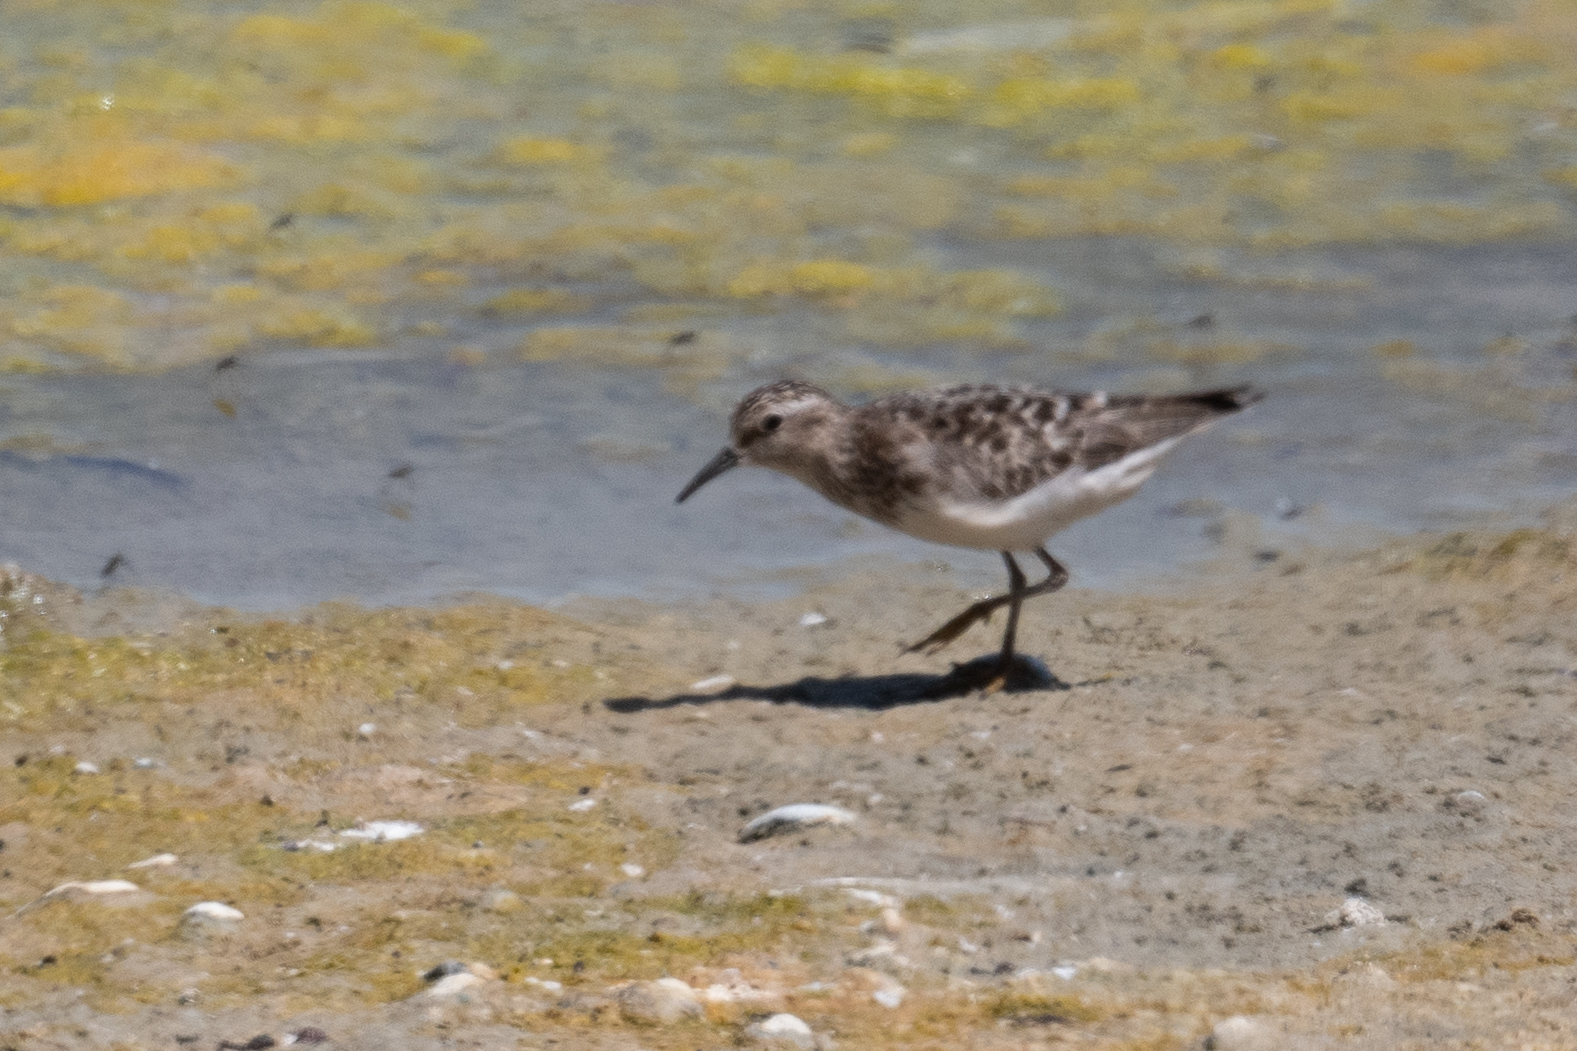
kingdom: Animalia
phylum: Chordata
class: Aves
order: Charadriiformes
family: Scolopacidae
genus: Calidris
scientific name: Calidris minutilla
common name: Least sandpiper
